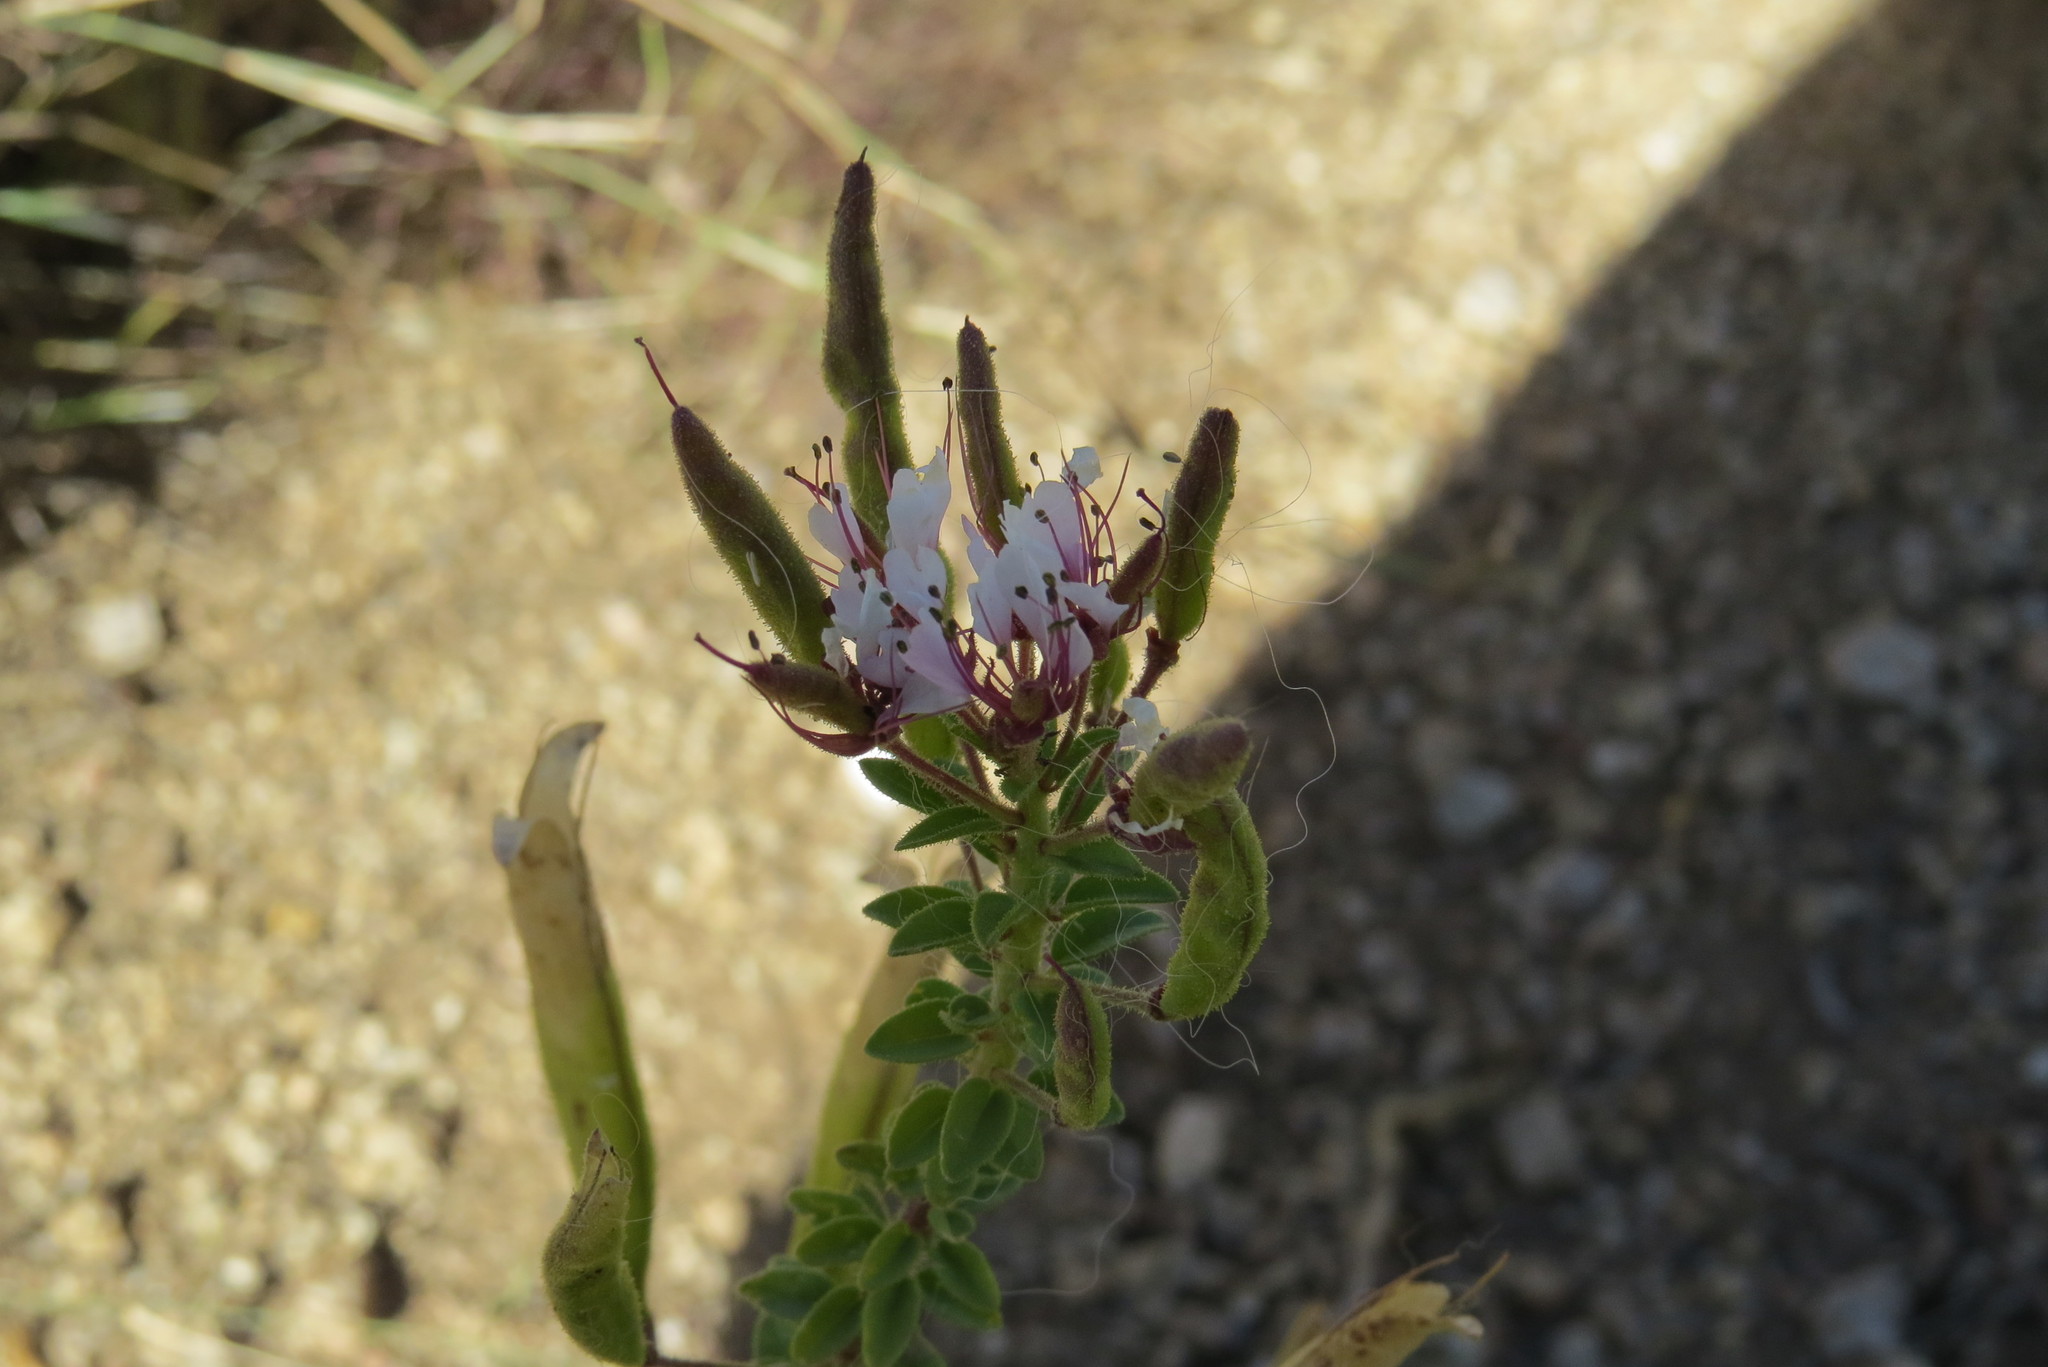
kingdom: Plantae
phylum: Tracheophyta
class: Magnoliopsida
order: Brassicales
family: Cleomaceae
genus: Polanisia
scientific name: Polanisia dodecandra
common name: Clammyweed
